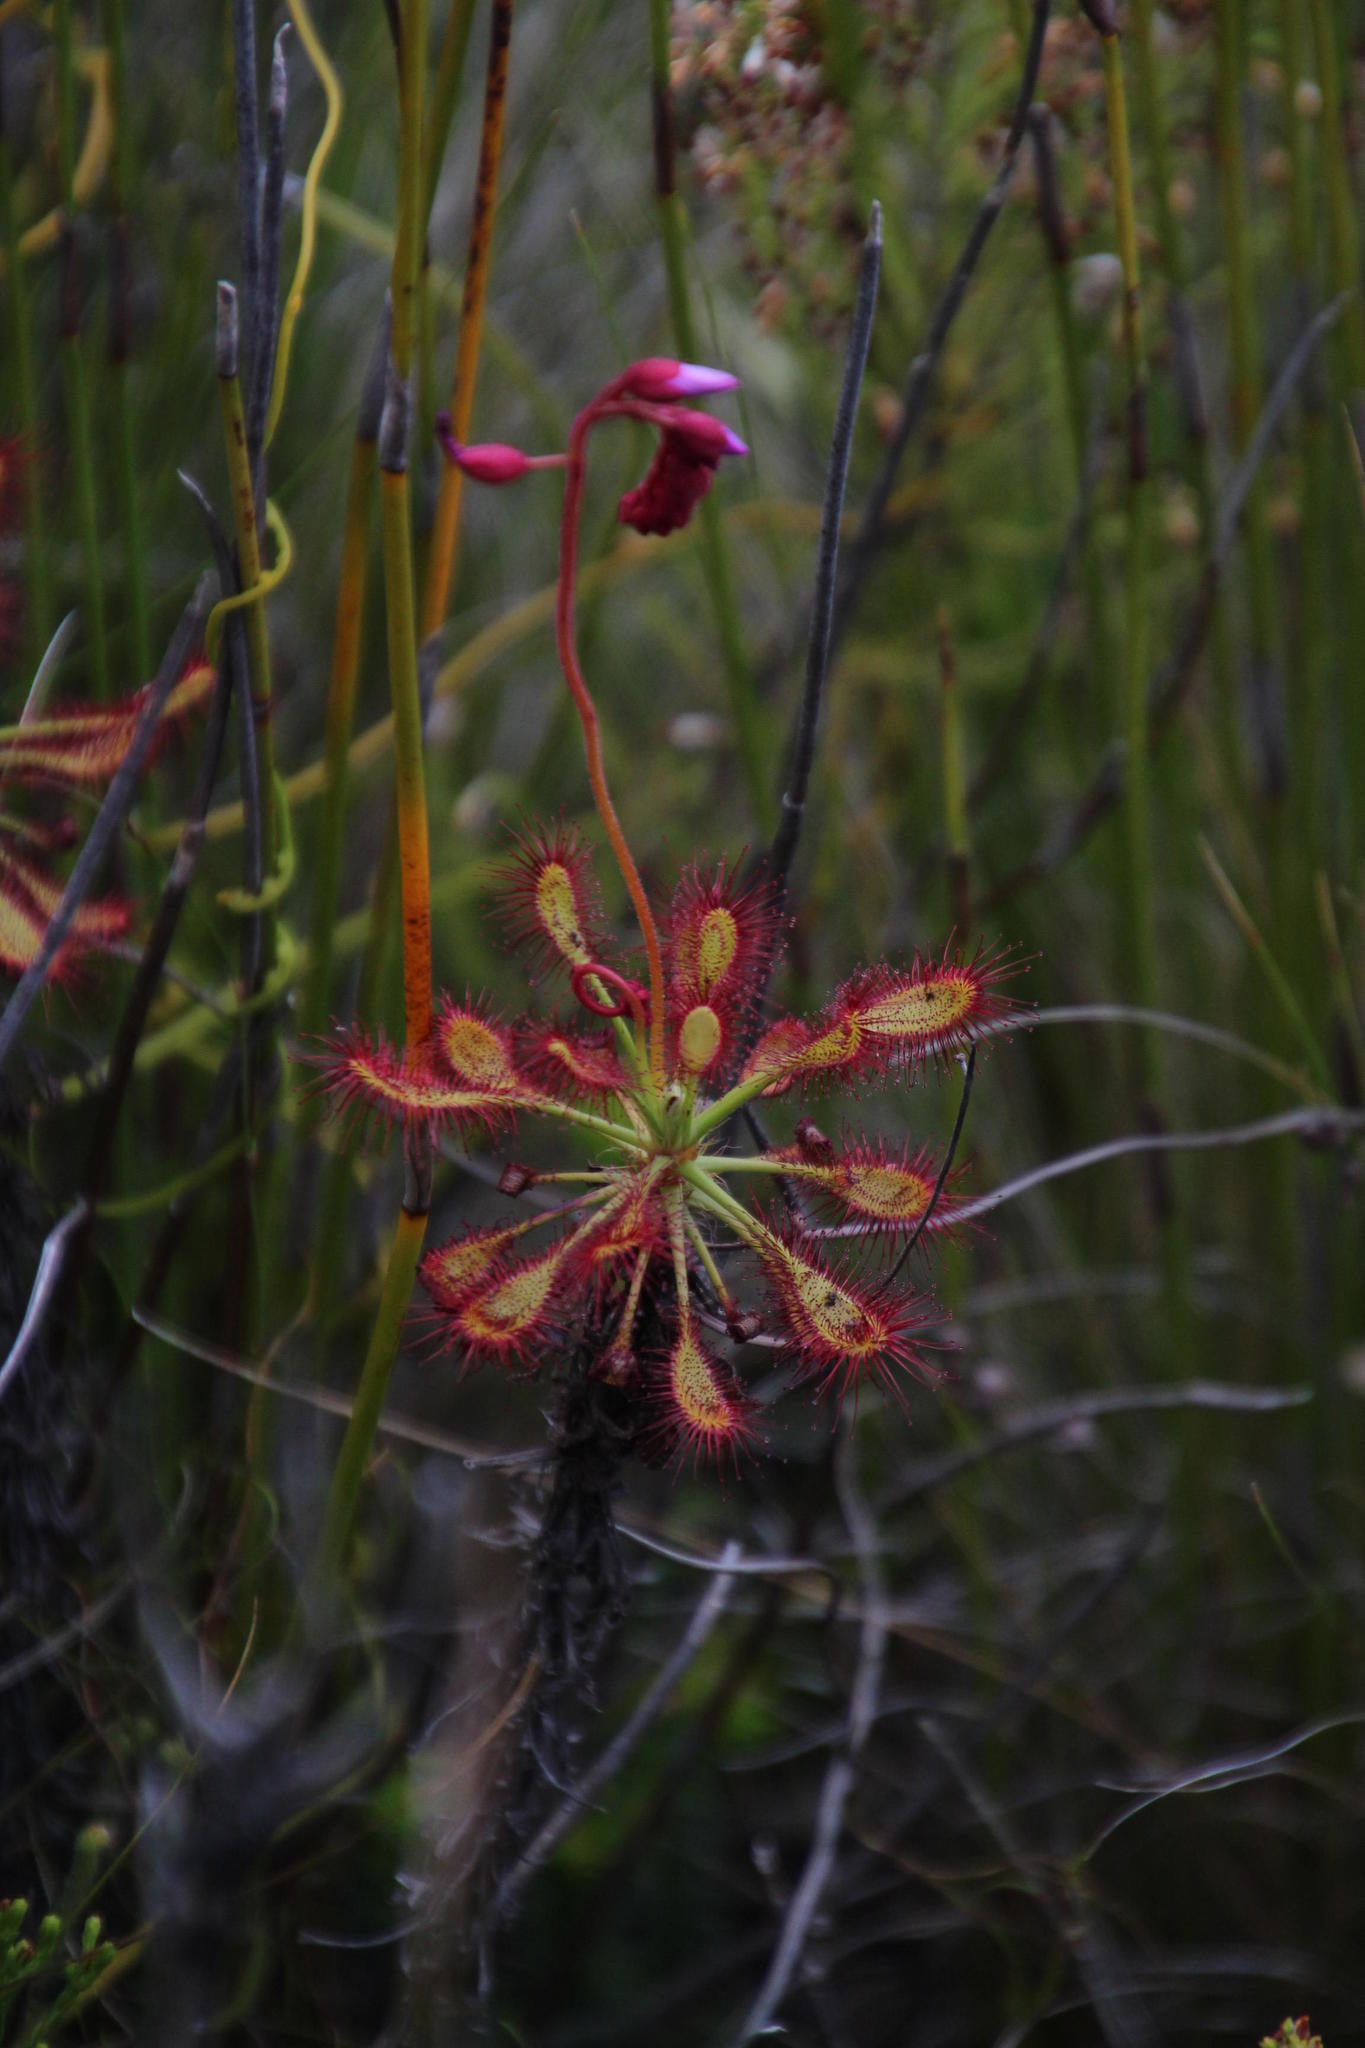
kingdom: Plantae
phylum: Tracheophyta
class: Magnoliopsida
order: Caryophyllales
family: Droseraceae
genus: Drosera
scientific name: Drosera glabripes
